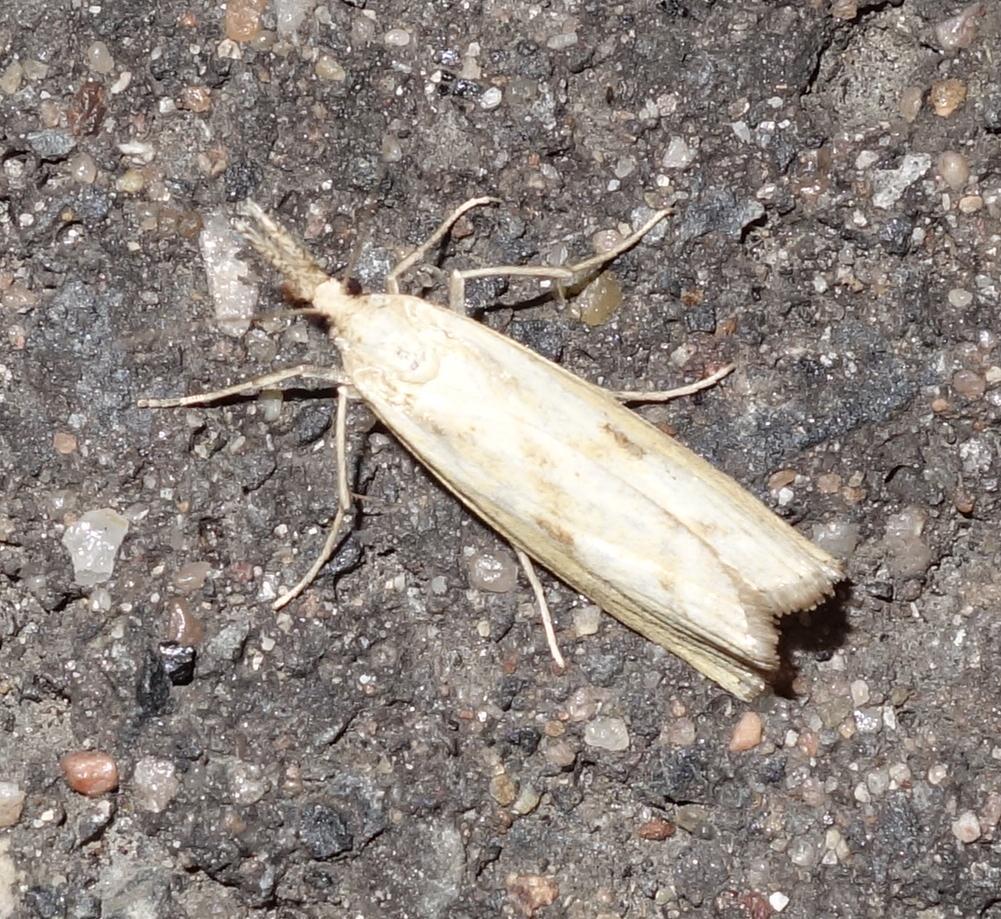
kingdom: Animalia
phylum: Arthropoda
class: Insecta
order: Lepidoptera
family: Crambidae
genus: Agriphila
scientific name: Agriphila inquinatella
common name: Barred grass-veneer
